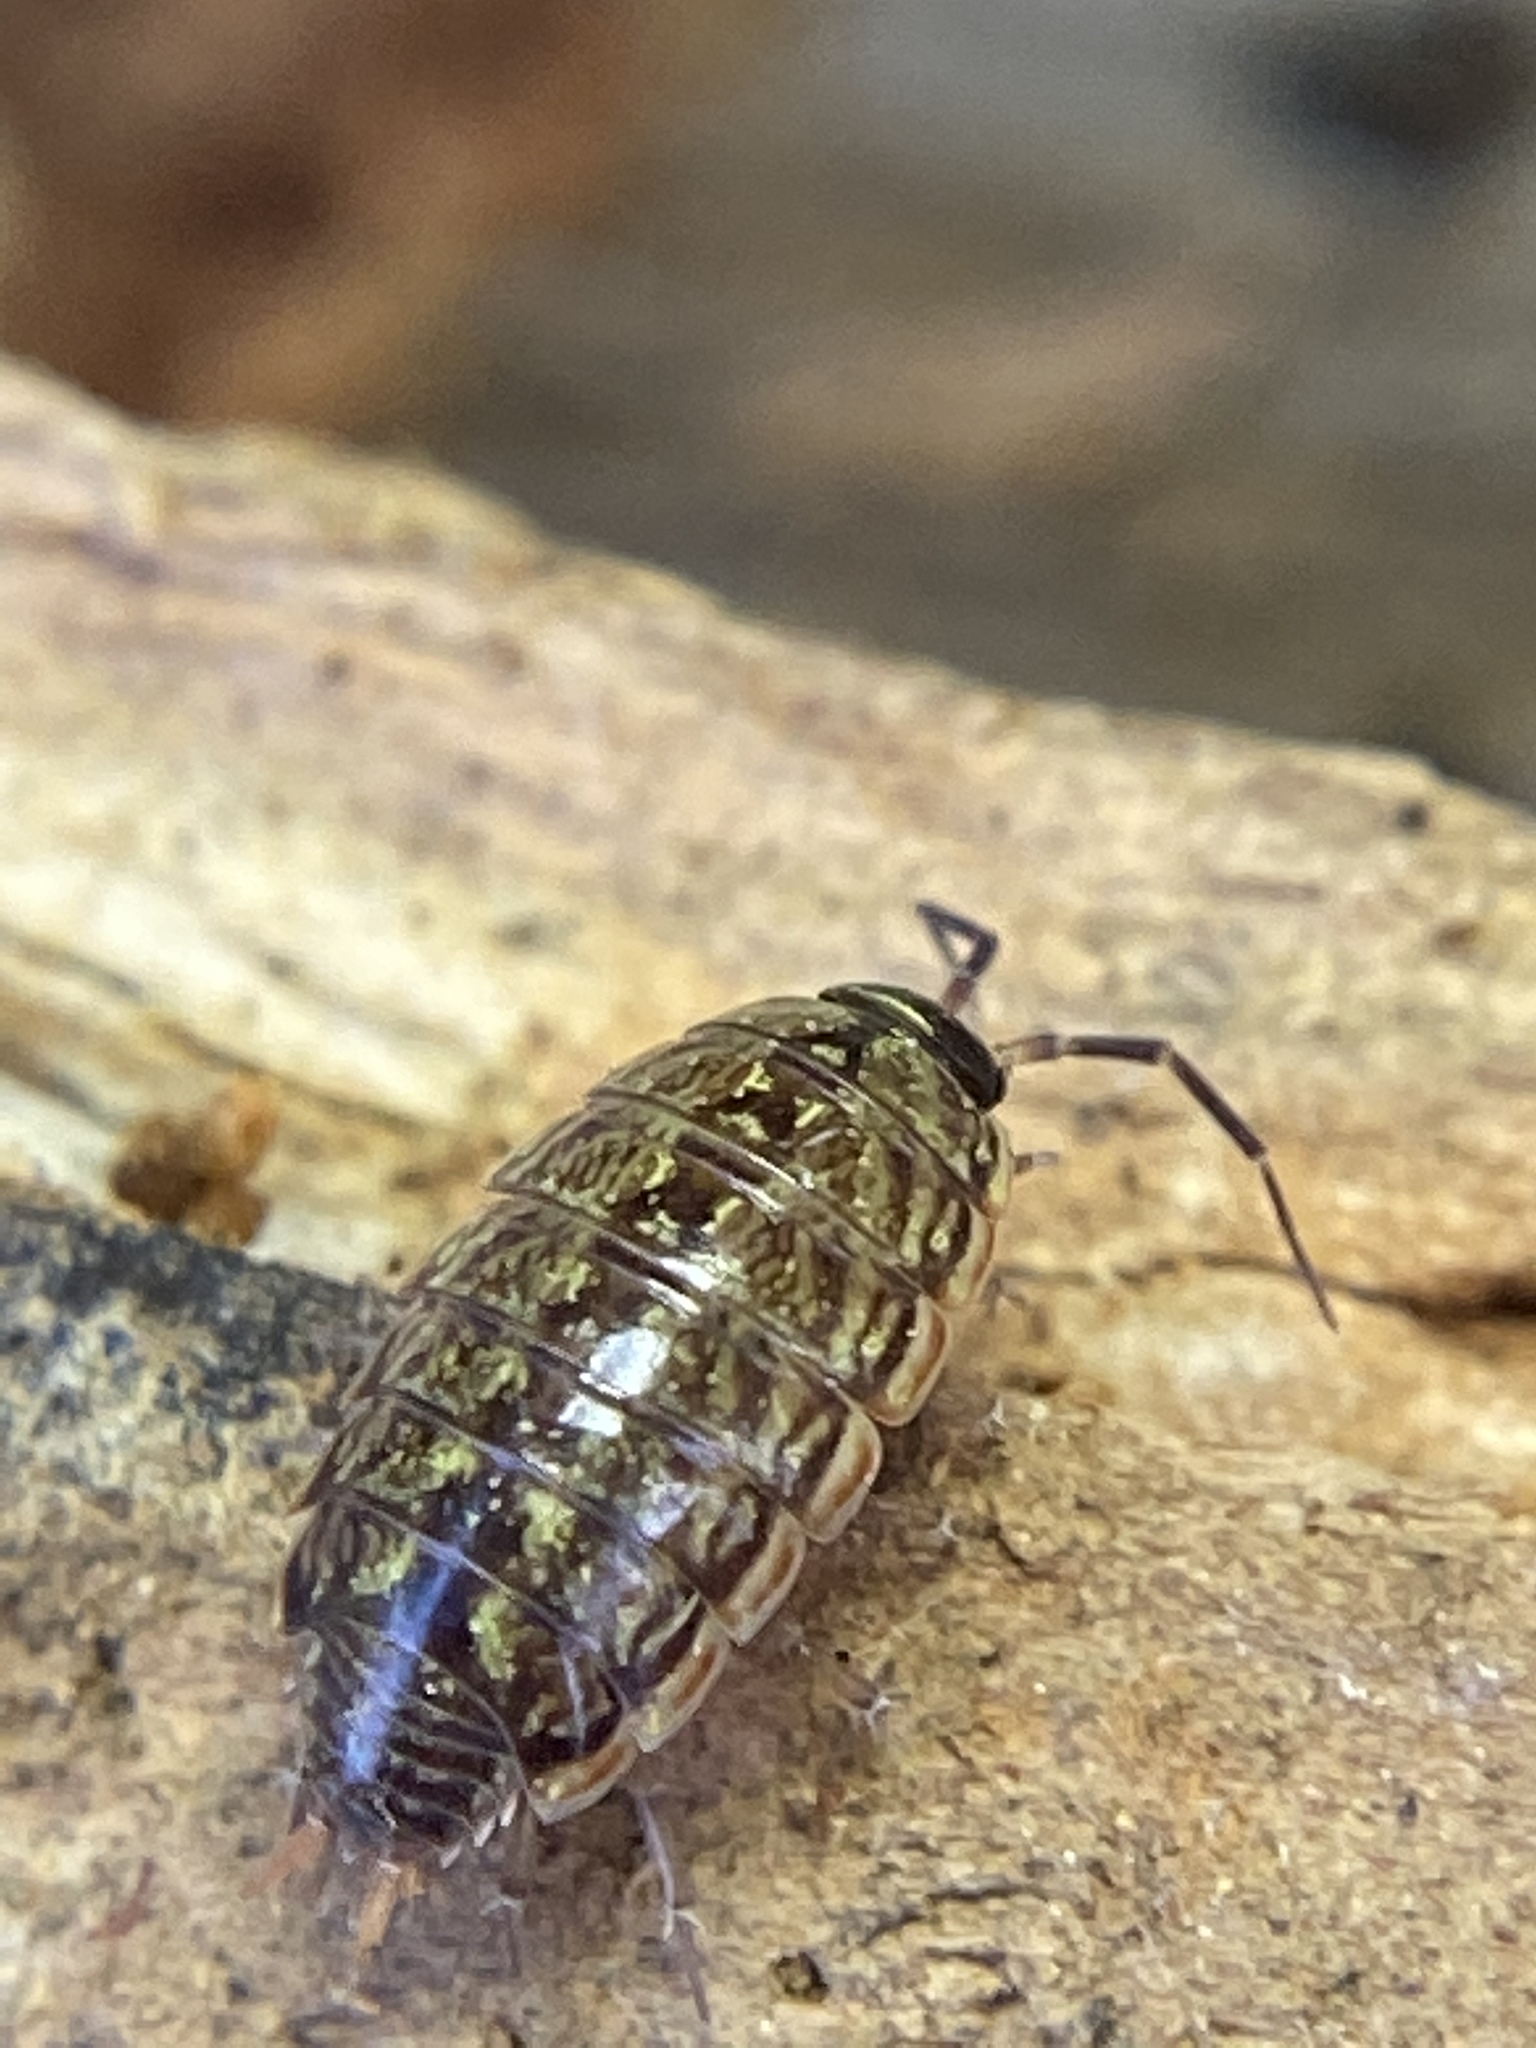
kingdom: Animalia
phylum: Arthropoda
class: Malacostraca
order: Isopoda
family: Philosciidae
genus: Philoscia
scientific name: Philoscia muscorum
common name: Common striped woodlouse
